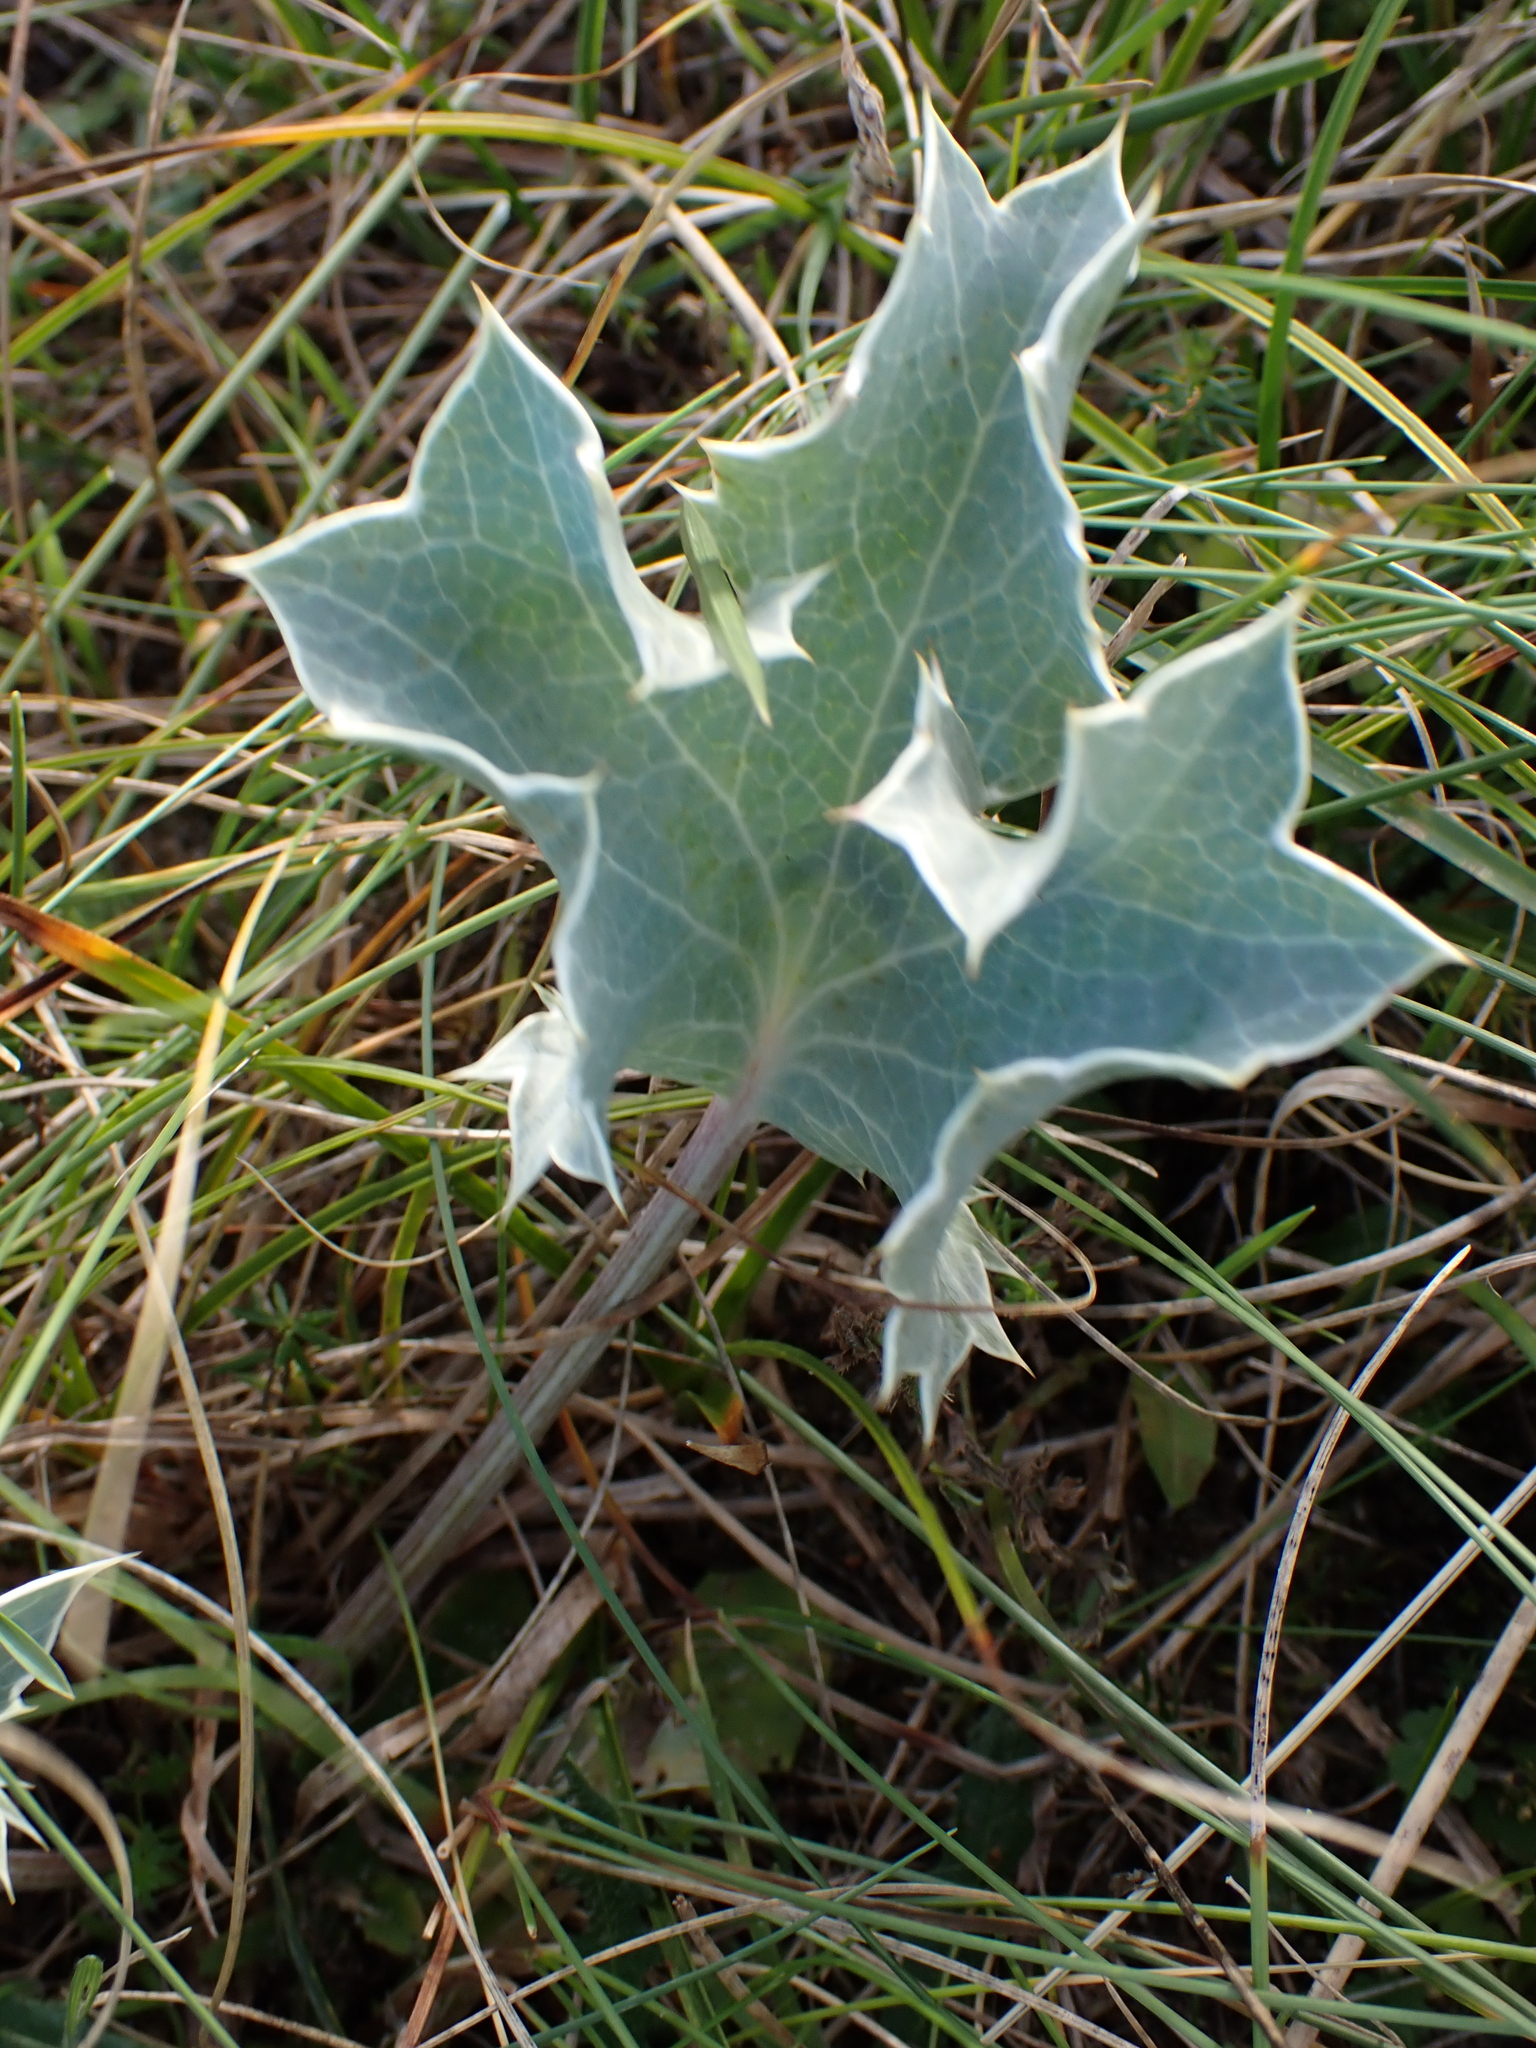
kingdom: Plantae
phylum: Tracheophyta
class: Magnoliopsida
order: Apiales
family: Apiaceae
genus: Eryngium
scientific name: Eryngium maritimum
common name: Sea-holly
